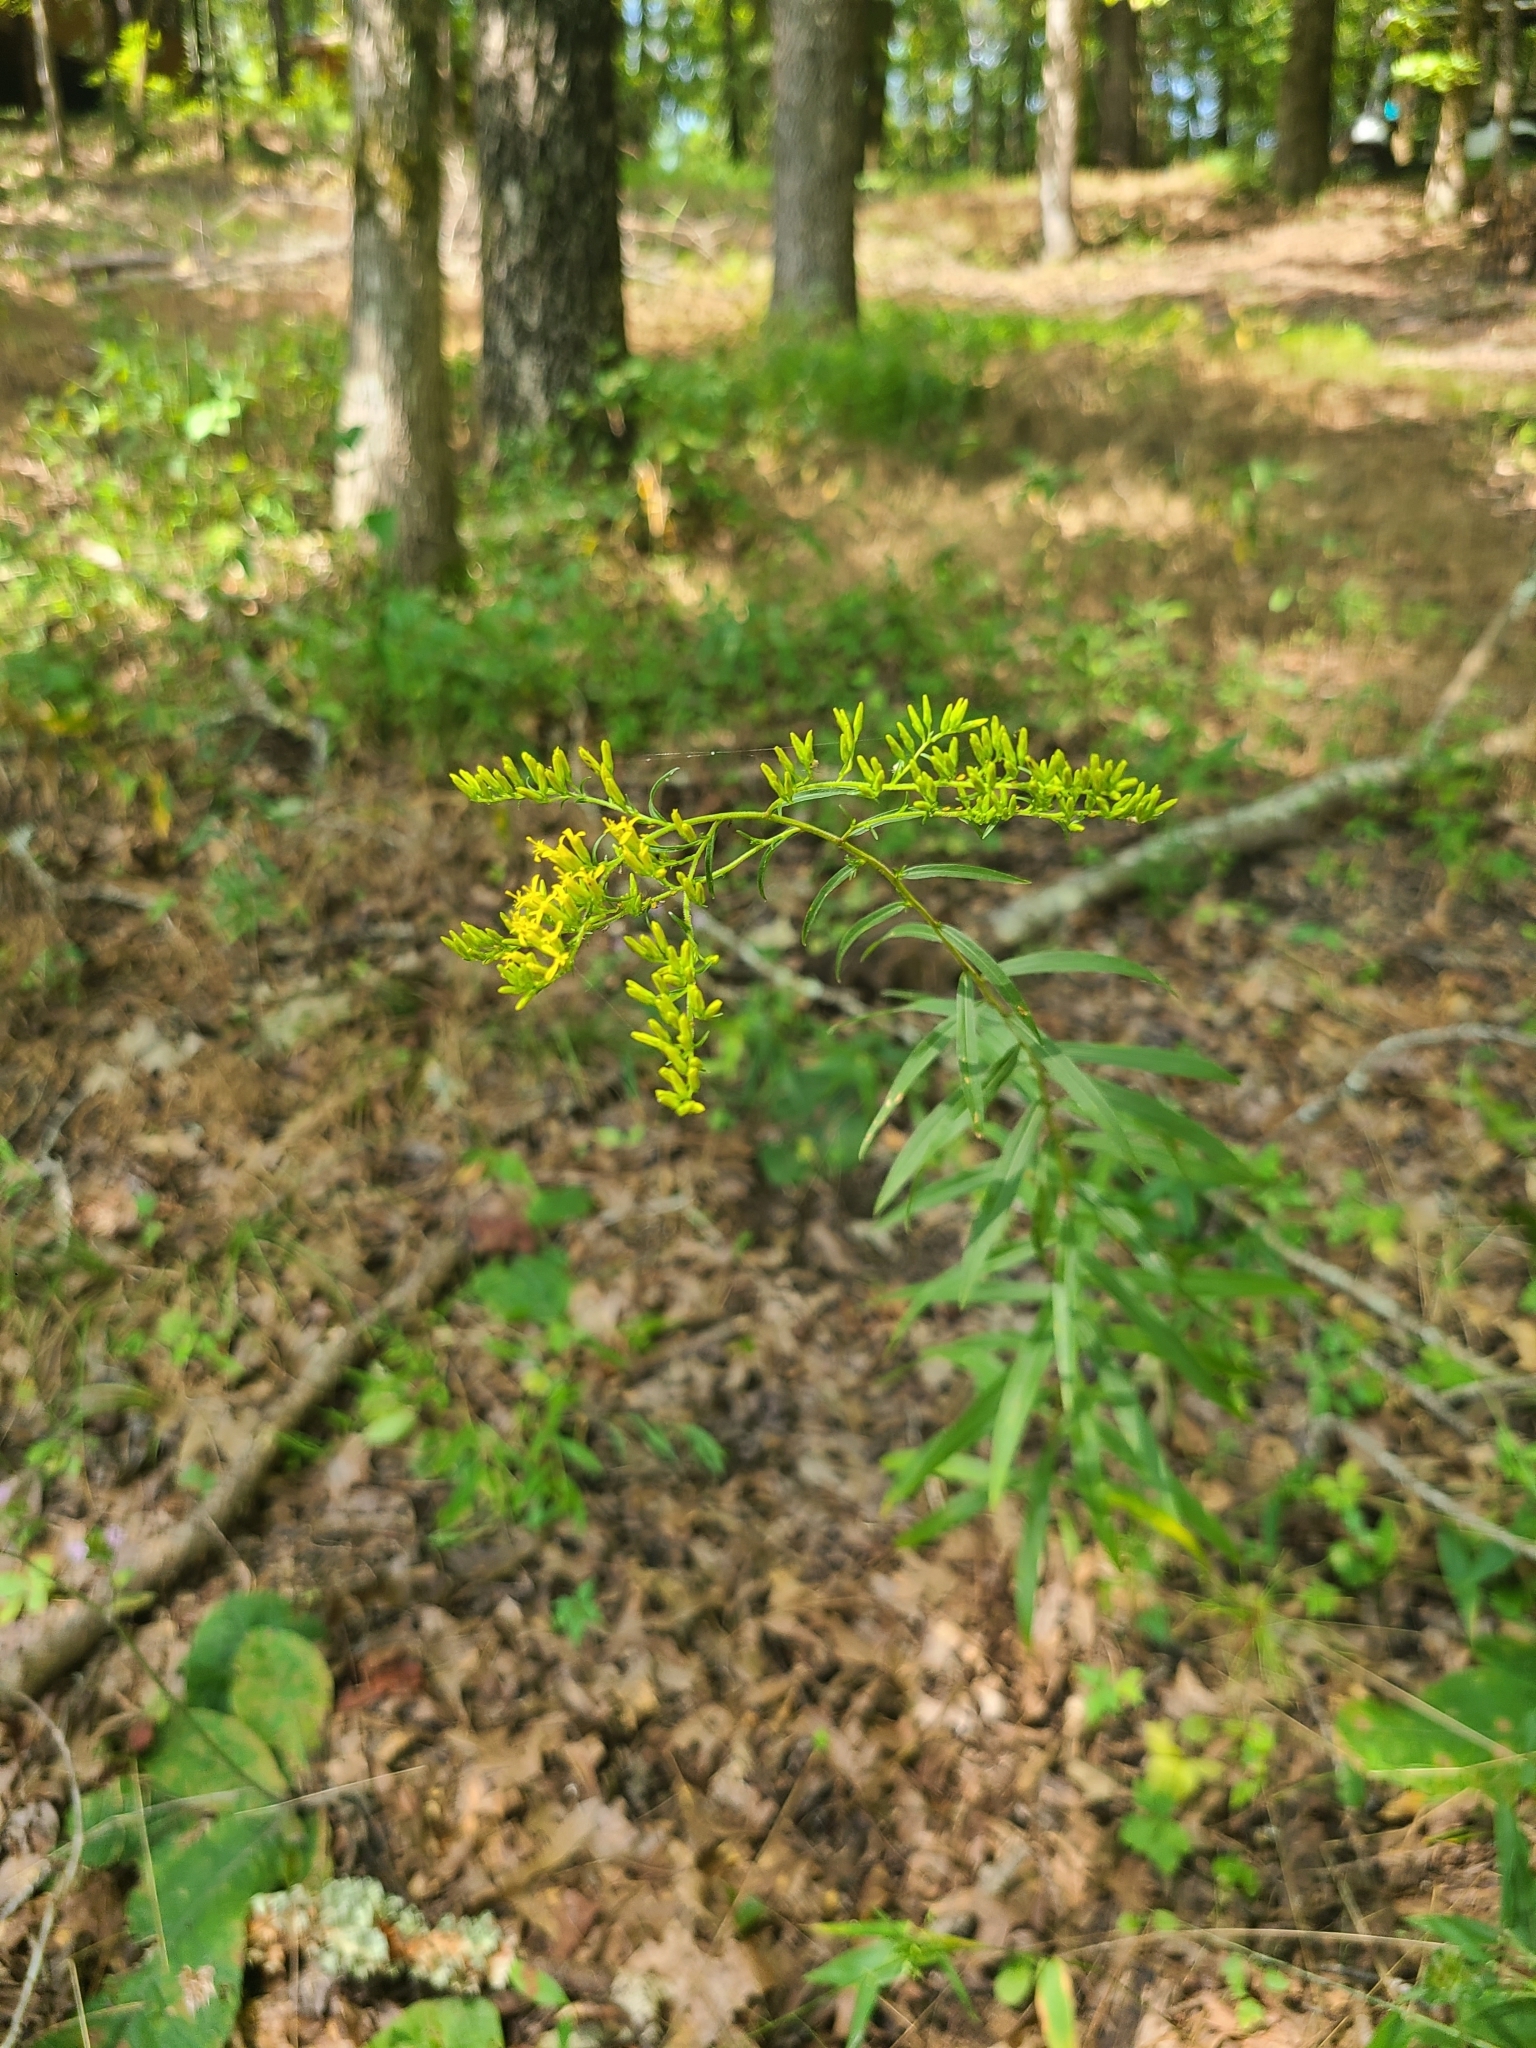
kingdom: Plantae
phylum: Tracheophyta
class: Magnoliopsida
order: Asterales
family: Asteraceae
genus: Solidago
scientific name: Solidago odora
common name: Anise-scented goldenrod
